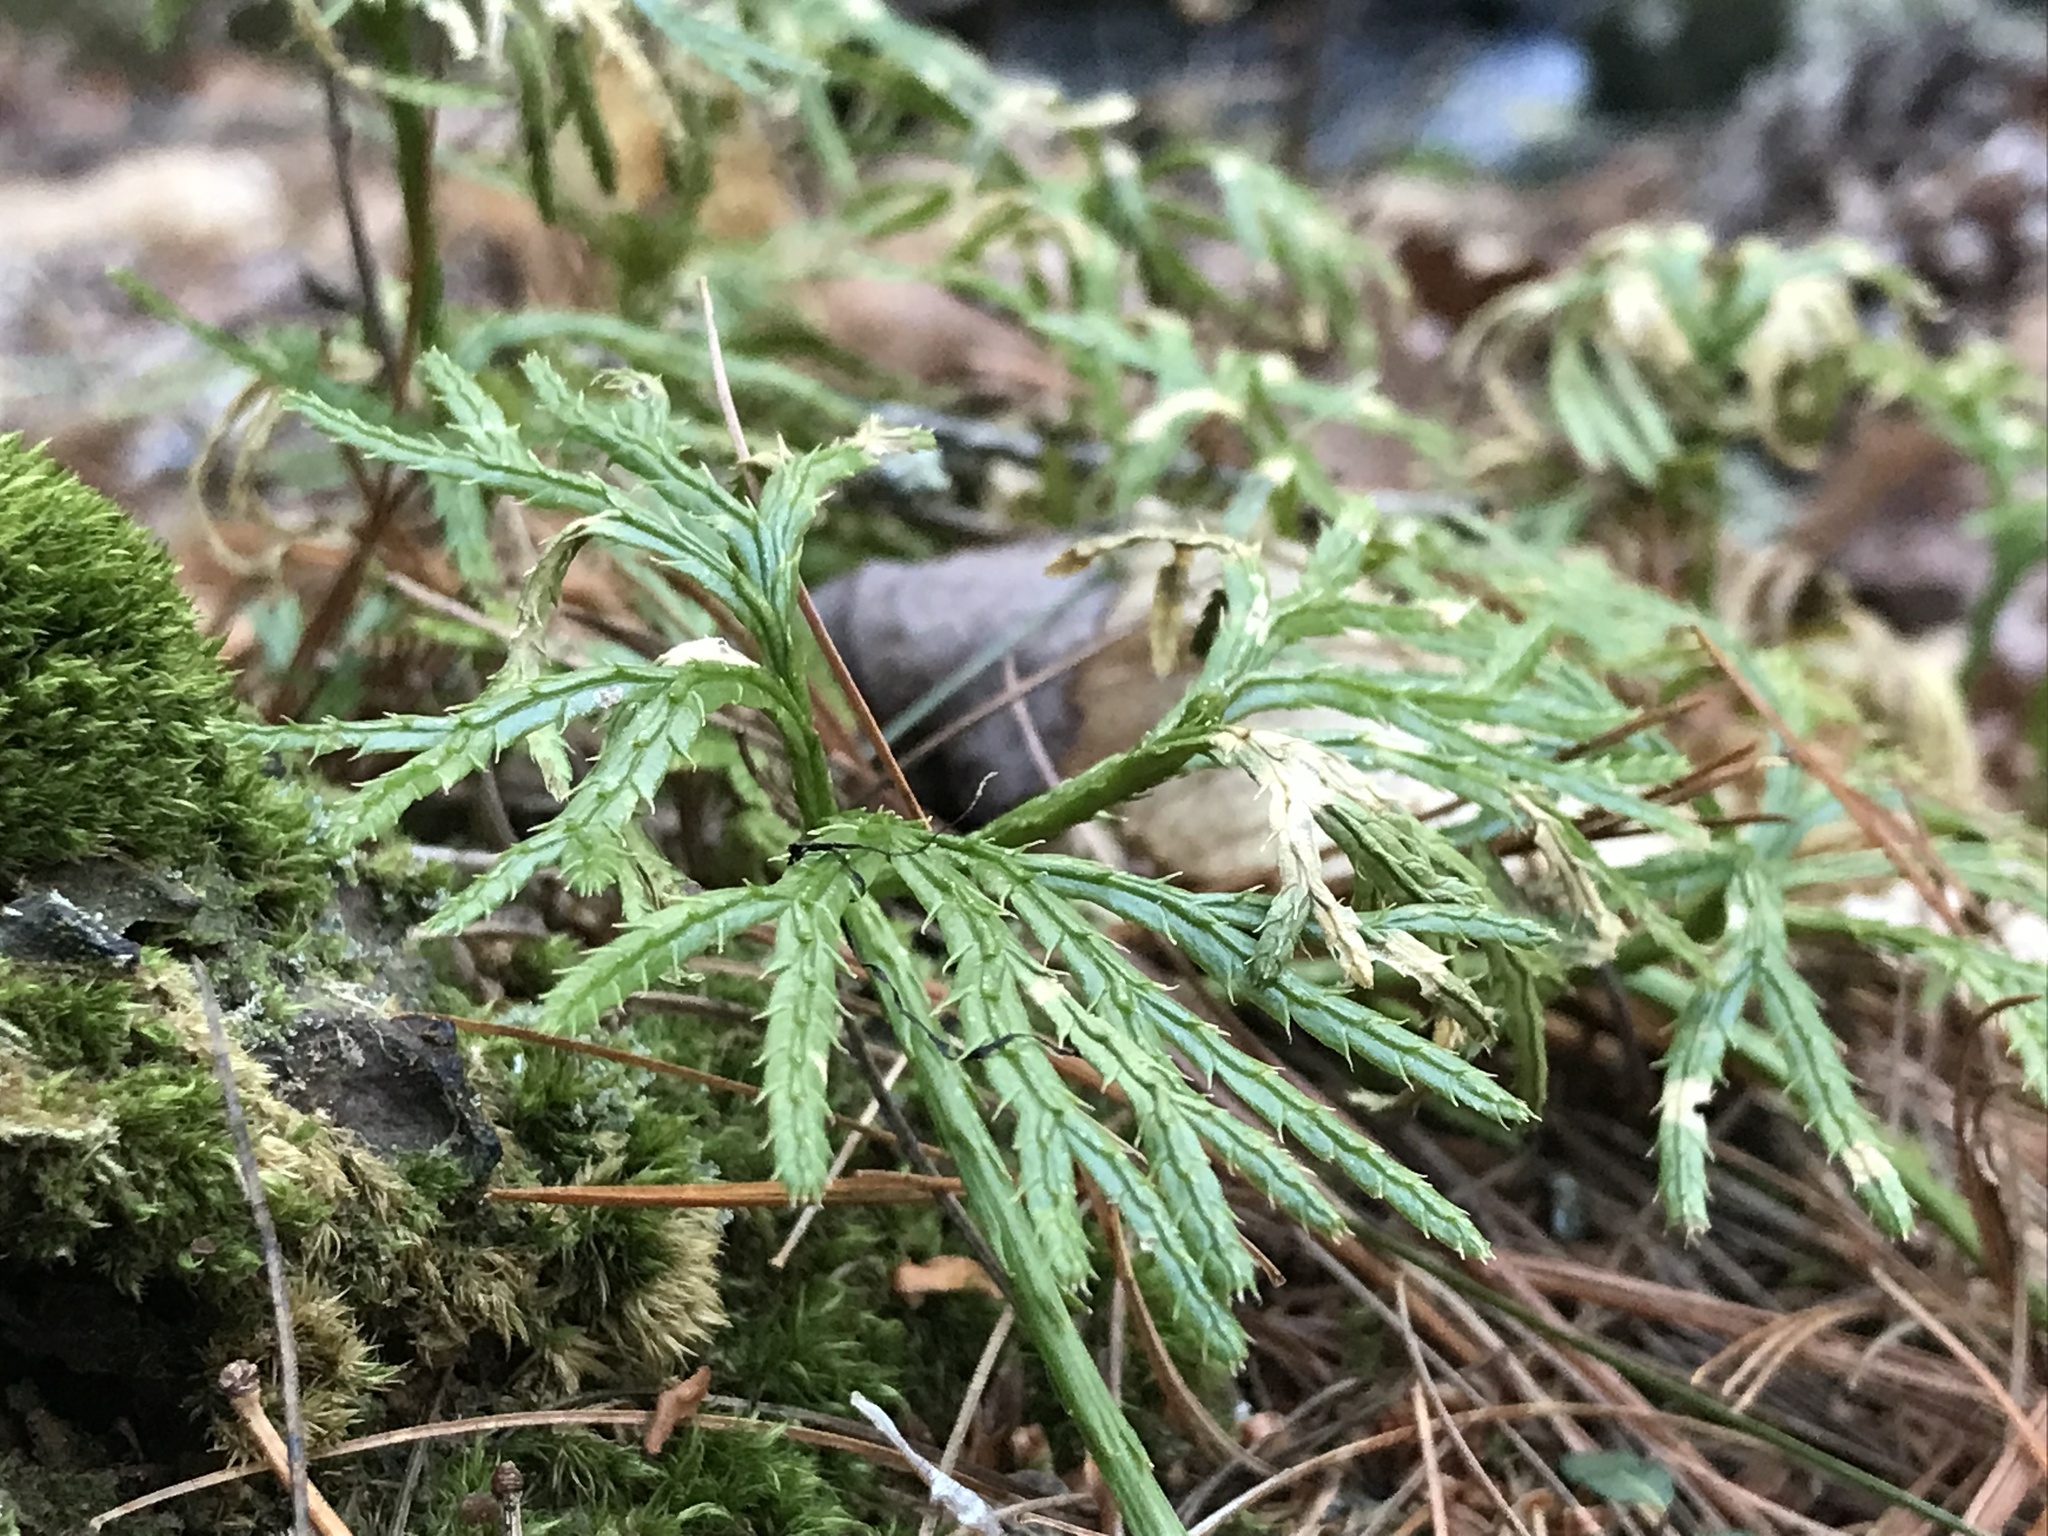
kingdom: Plantae
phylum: Tracheophyta
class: Lycopodiopsida
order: Lycopodiales
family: Lycopodiaceae
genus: Diphasiastrum
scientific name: Diphasiastrum digitatum
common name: Southern running-pine
